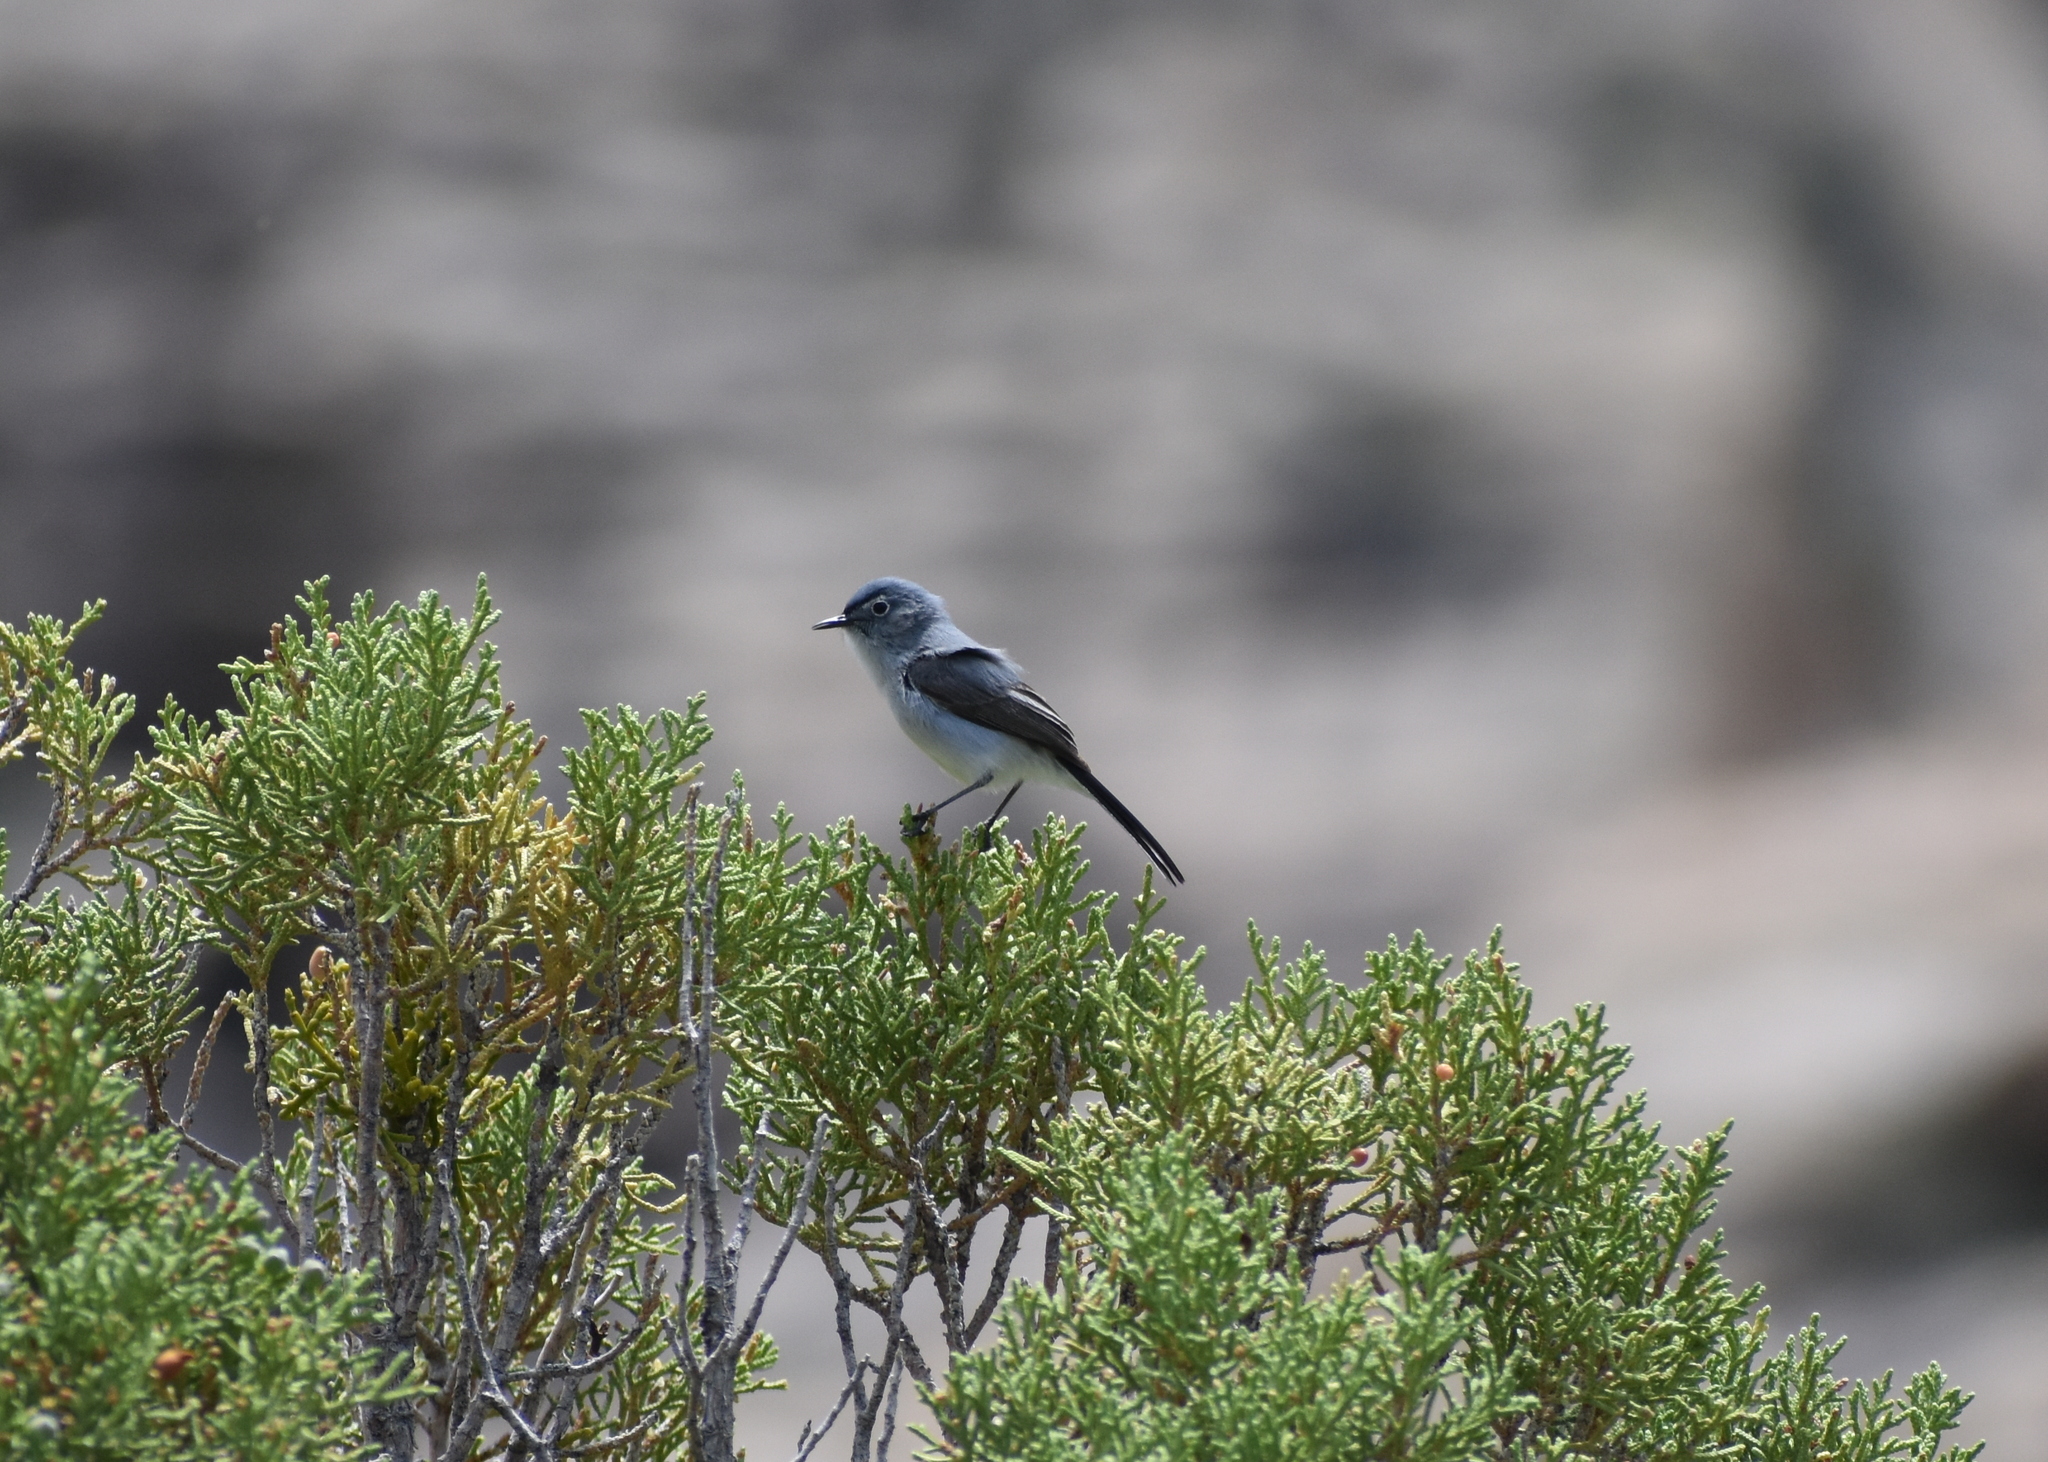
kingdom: Animalia
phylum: Chordata
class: Aves
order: Passeriformes
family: Polioptilidae
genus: Polioptila
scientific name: Polioptila caerulea
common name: Blue-gray gnatcatcher
